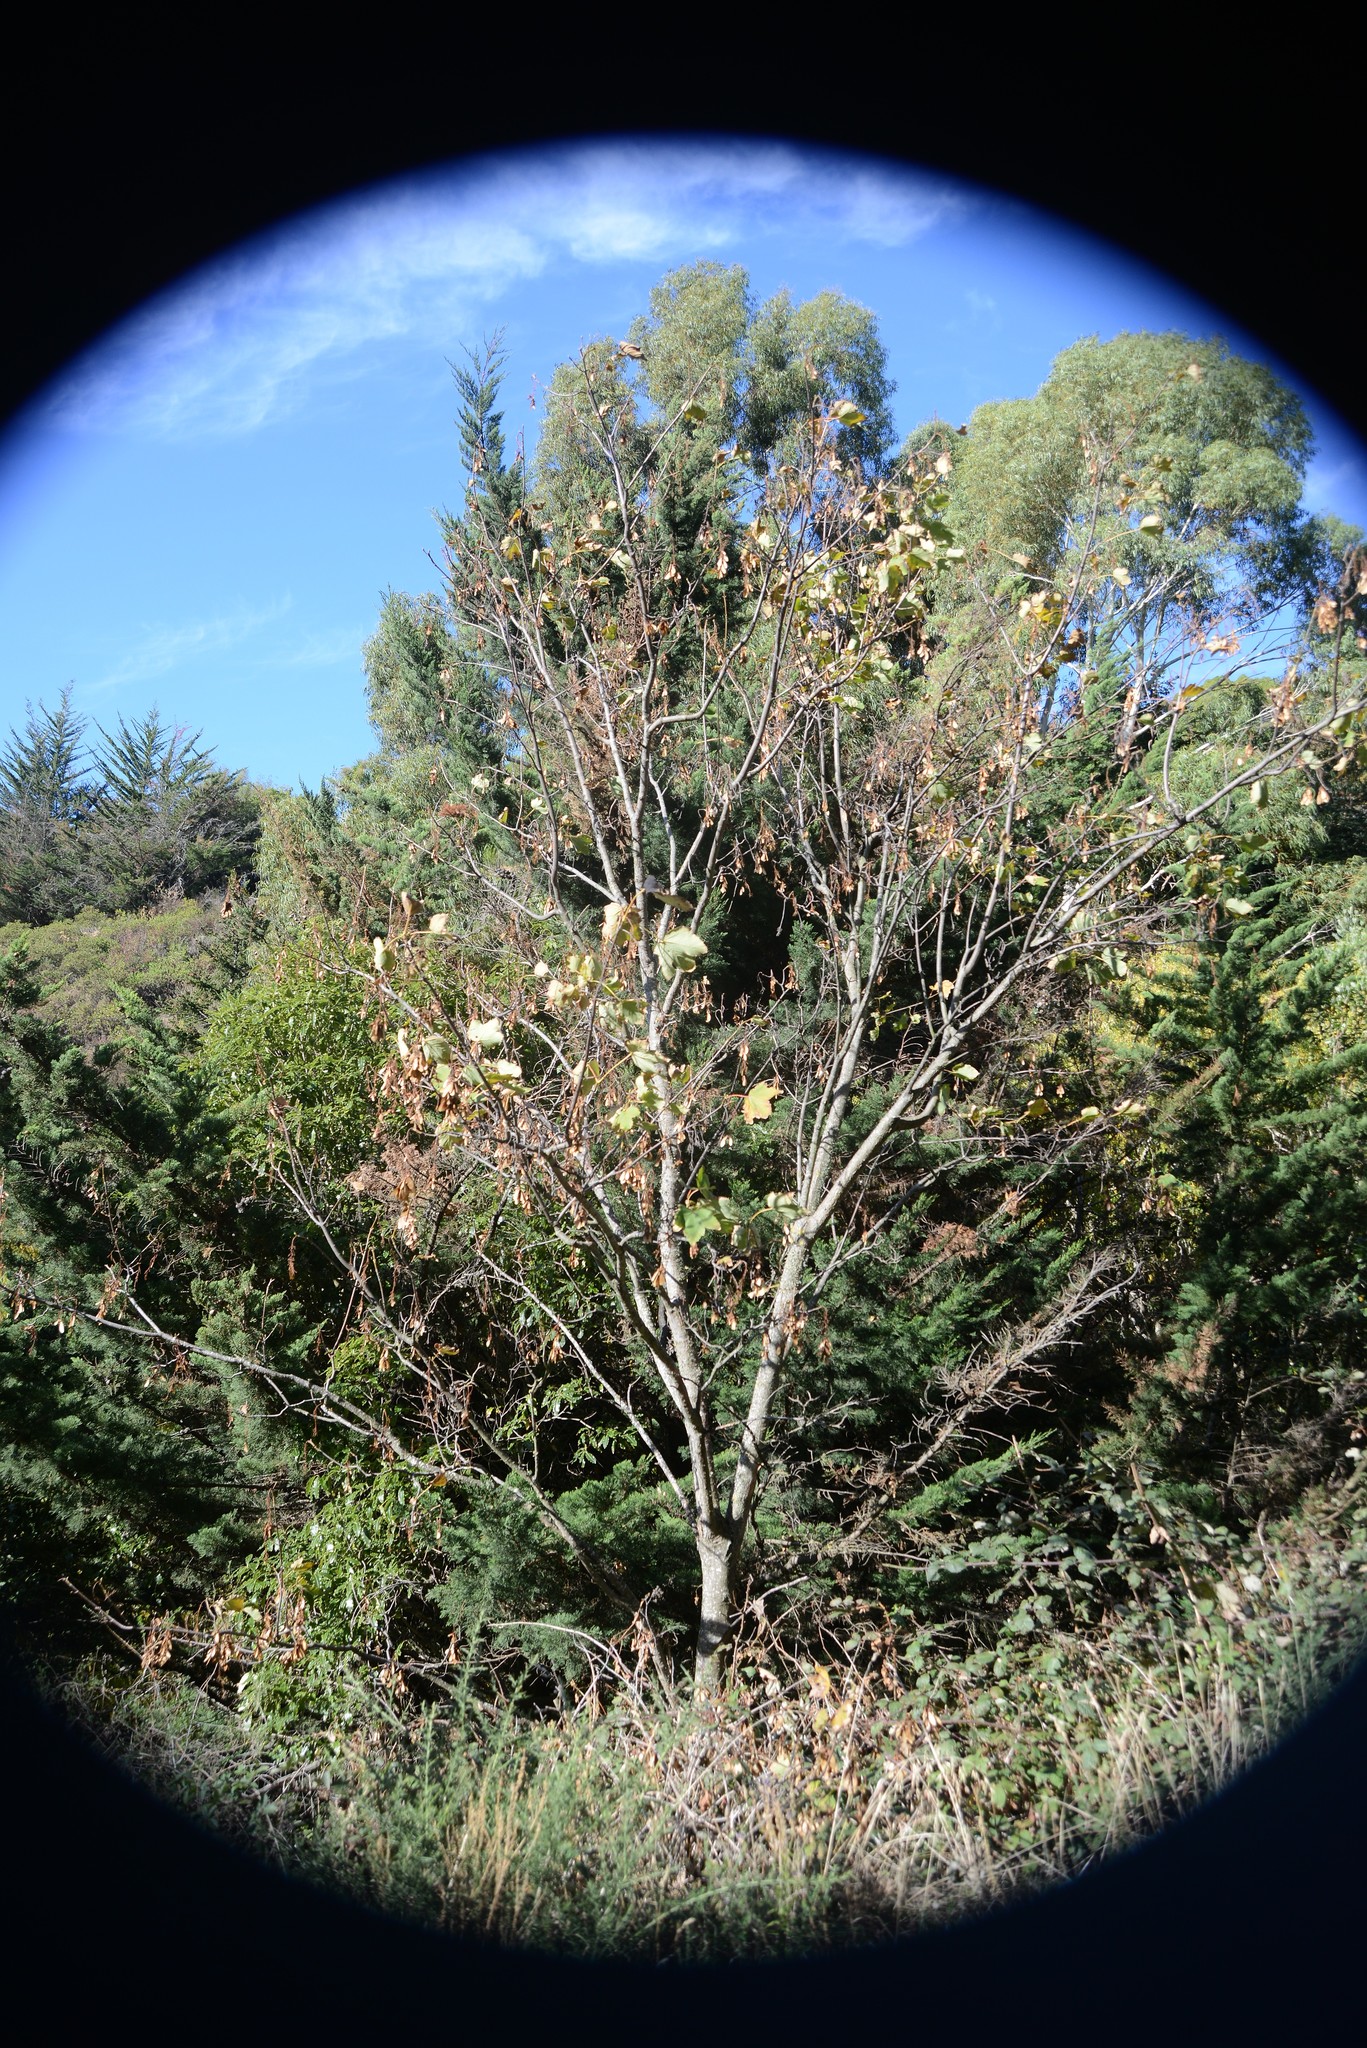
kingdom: Plantae
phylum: Tracheophyta
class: Magnoliopsida
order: Sapindales
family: Sapindaceae
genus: Acer
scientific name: Acer pseudoplatanus
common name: Sycamore
